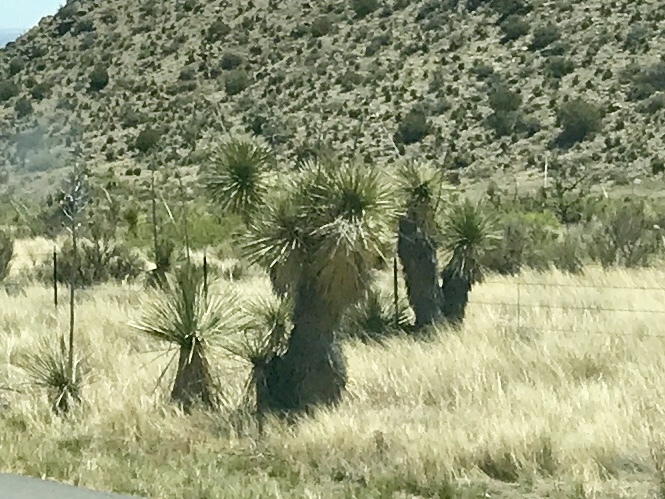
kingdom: Plantae
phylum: Tracheophyta
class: Liliopsida
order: Asparagales
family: Asparagaceae
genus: Yucca
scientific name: Yucca elata
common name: Palmella
